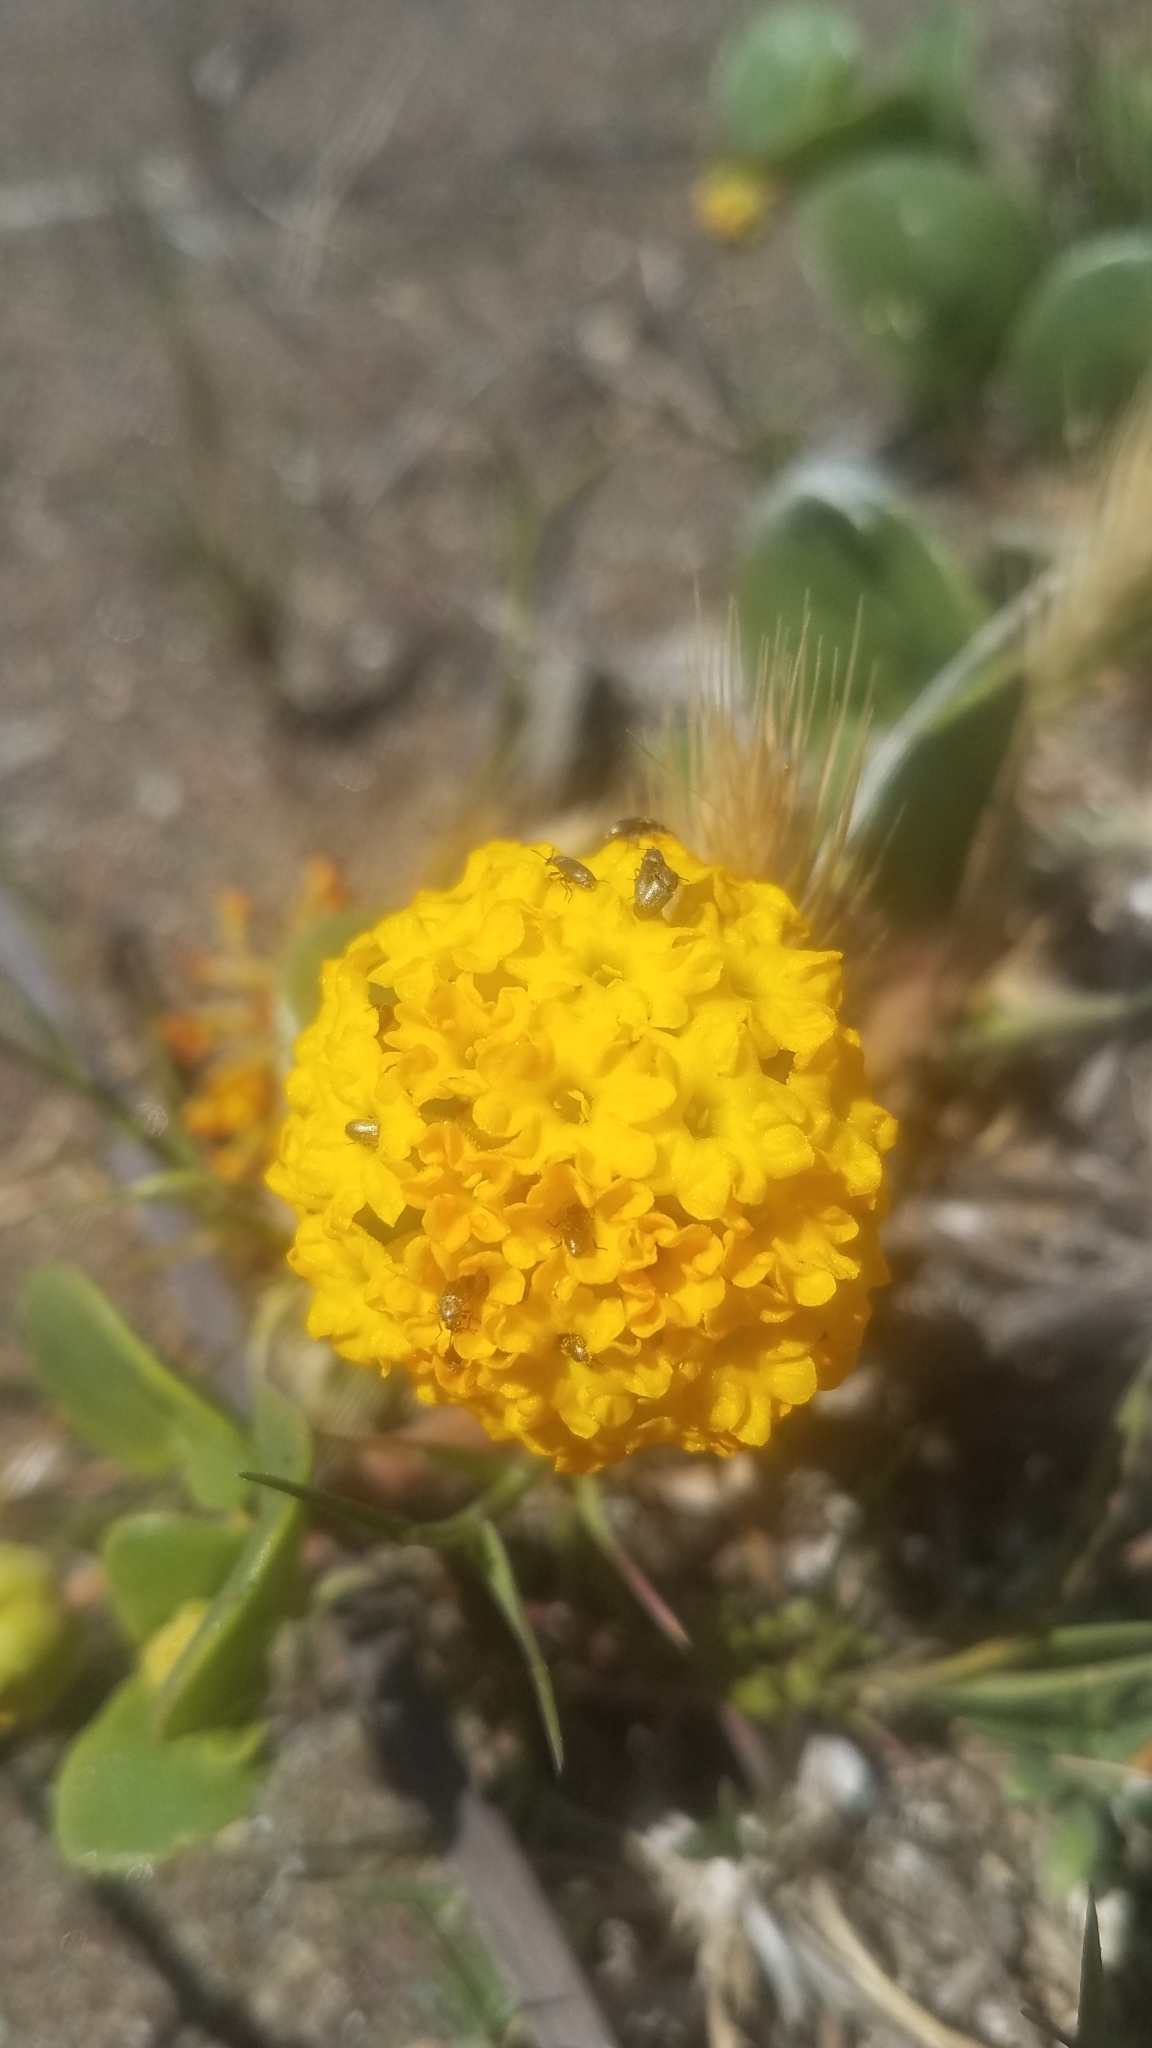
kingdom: Plantae
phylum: Tracheophyta
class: Magnoliopsida
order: Caryophyllales
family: Nyctaginaceae
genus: Abronia
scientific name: Abronia latifolia
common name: Yellow sand-verbena
